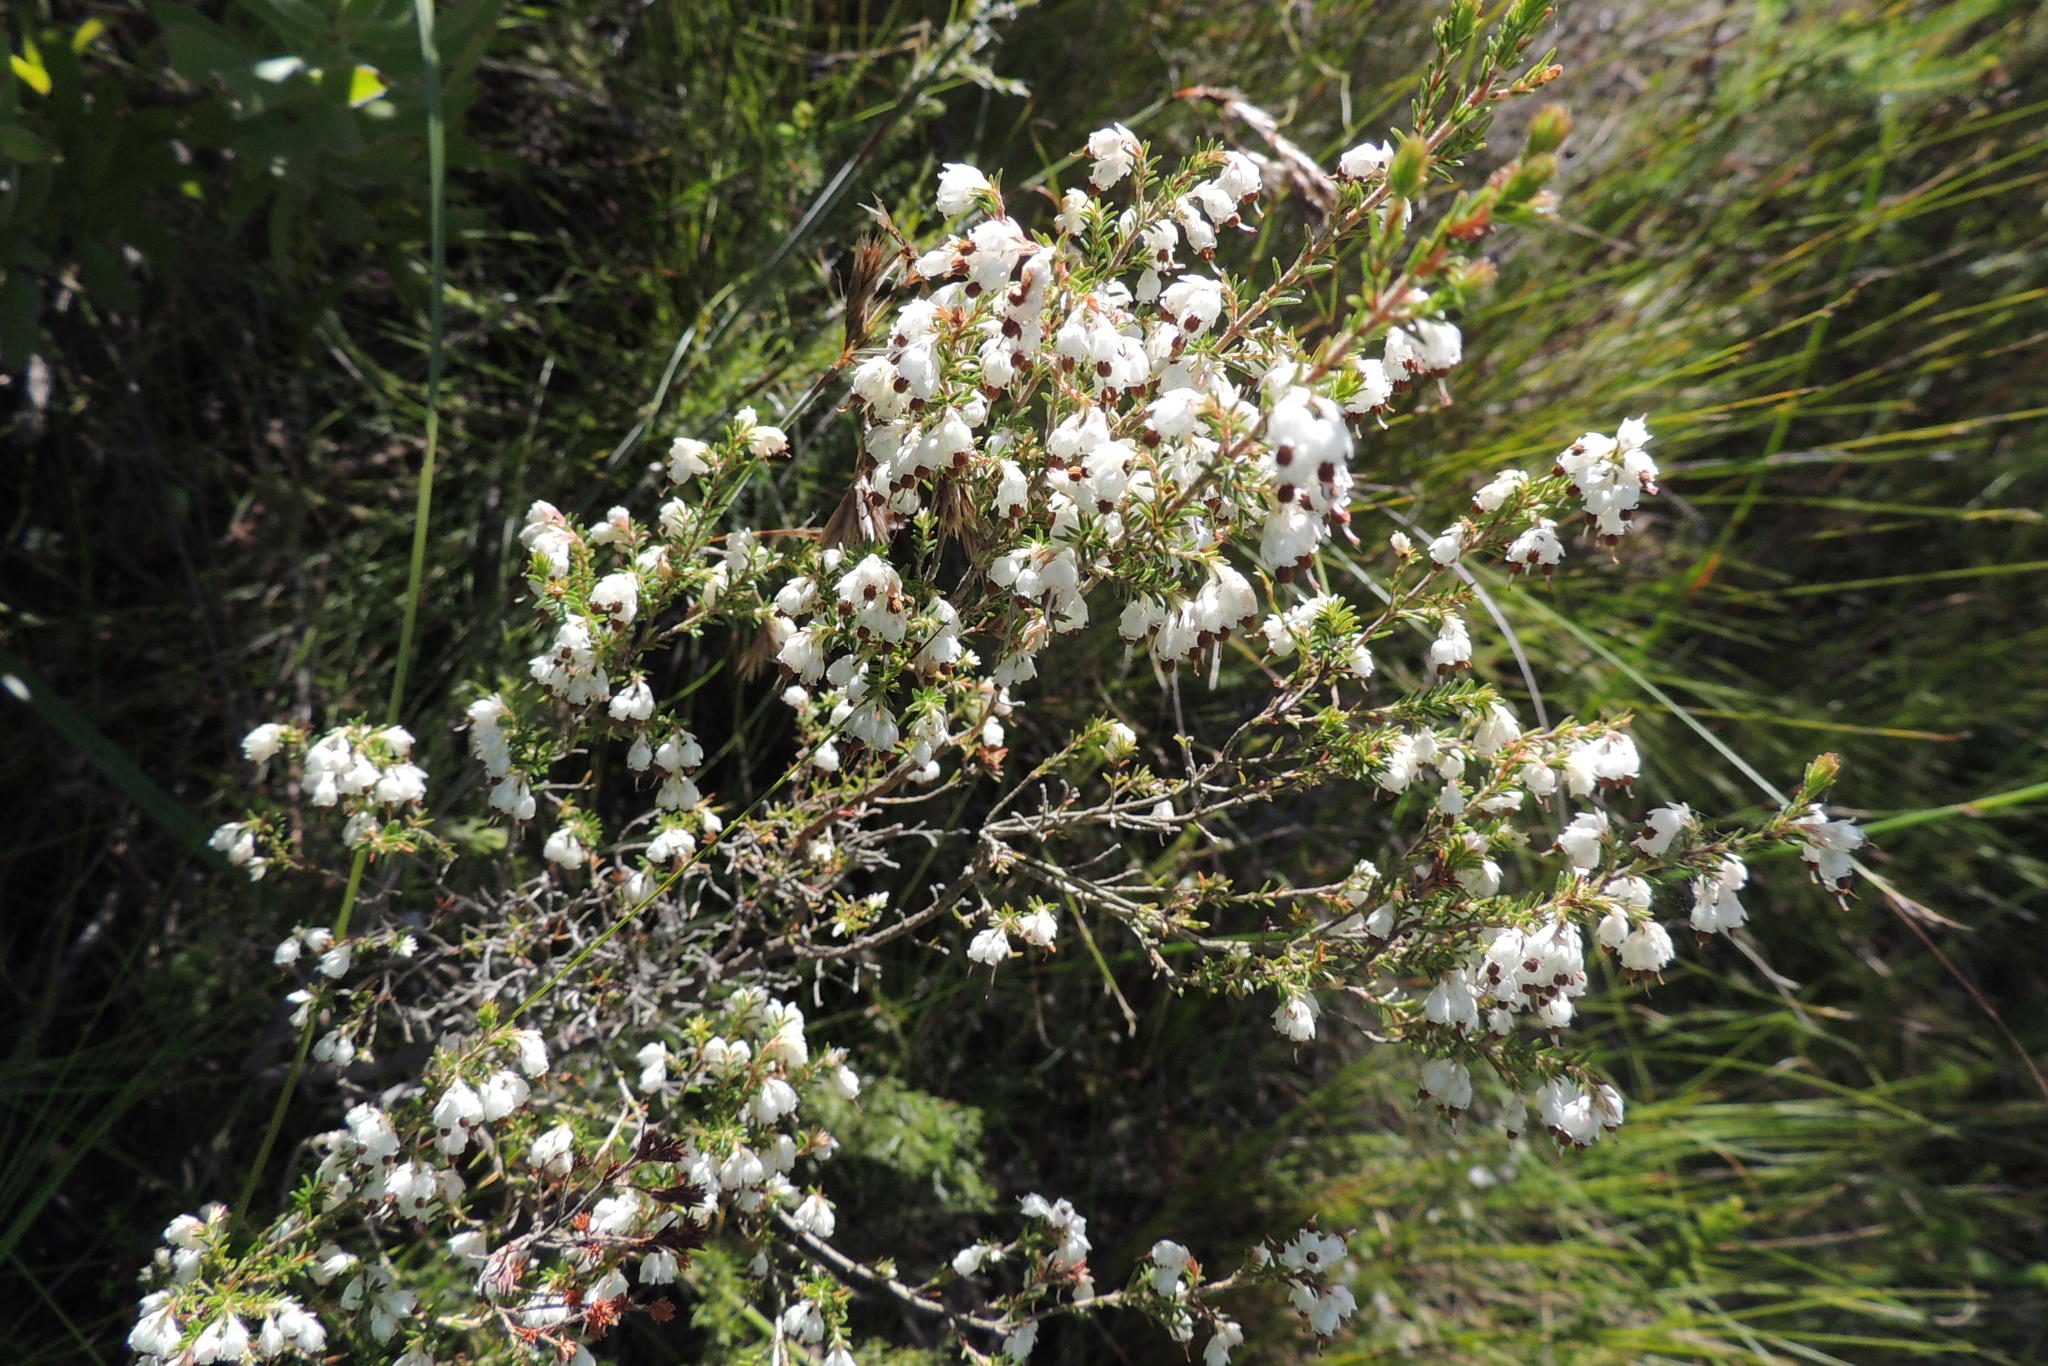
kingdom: Plantae
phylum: Tracheophyta
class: Magnoliopsida
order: Ericales
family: Ericaceae
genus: Erica
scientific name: Erica triceps
